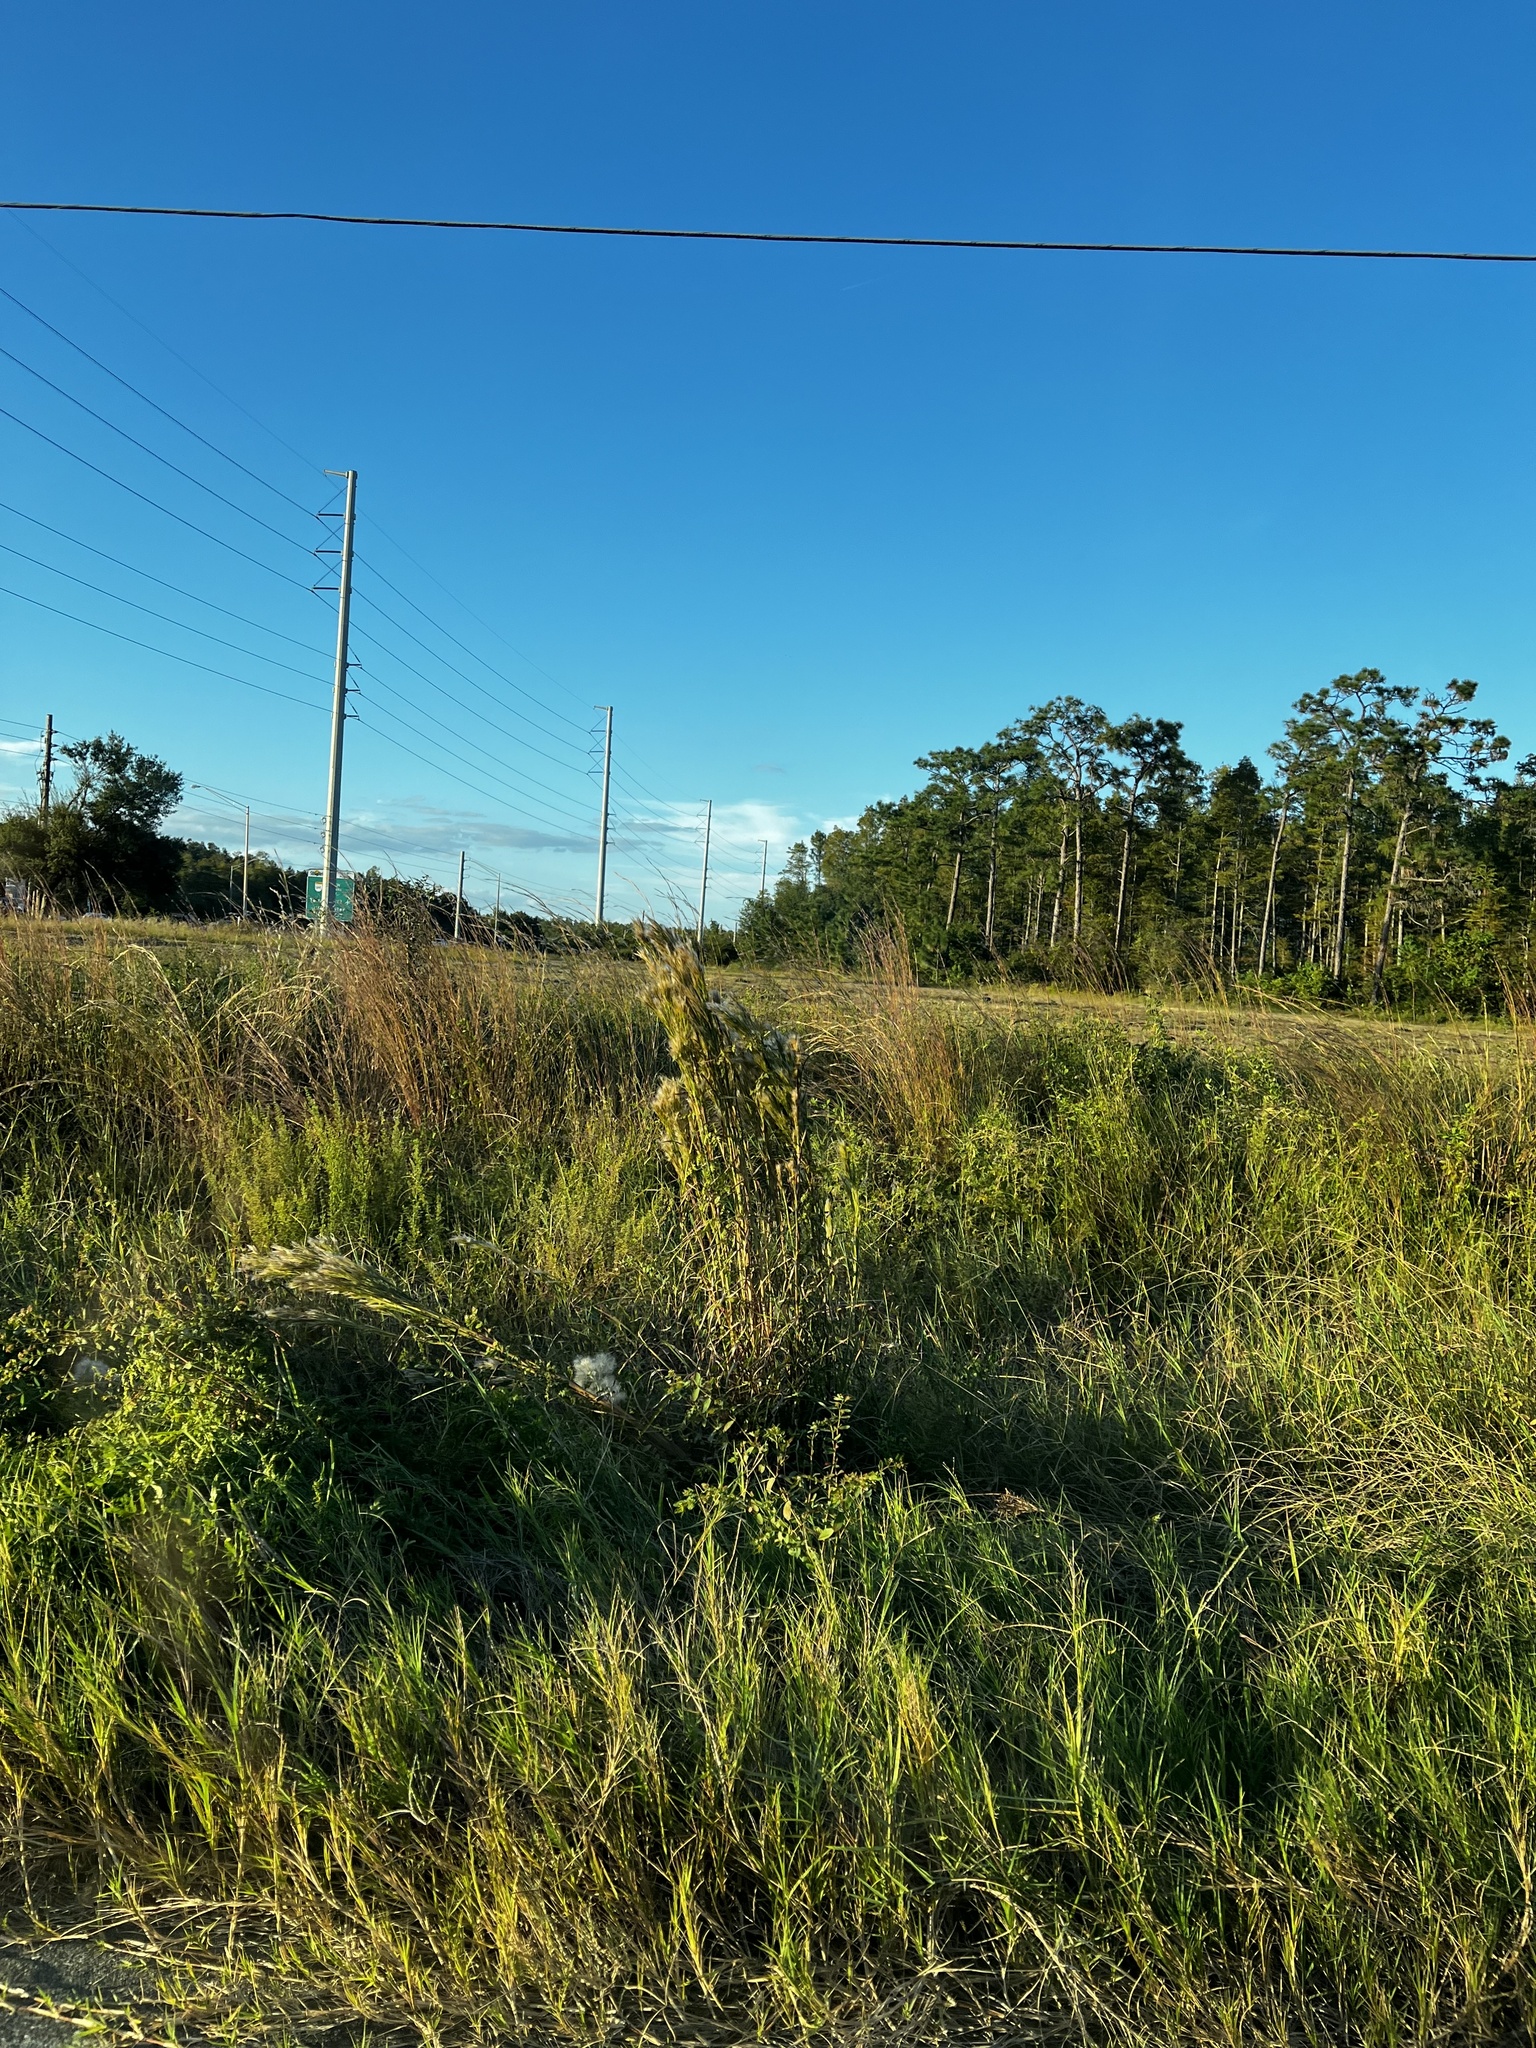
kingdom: Plantae
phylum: Tracheophyta
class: Liliopsida
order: Poales
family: Poaceae
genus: Andropogon
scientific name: Andropogon tenuispatheus
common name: Bushy bluestem
